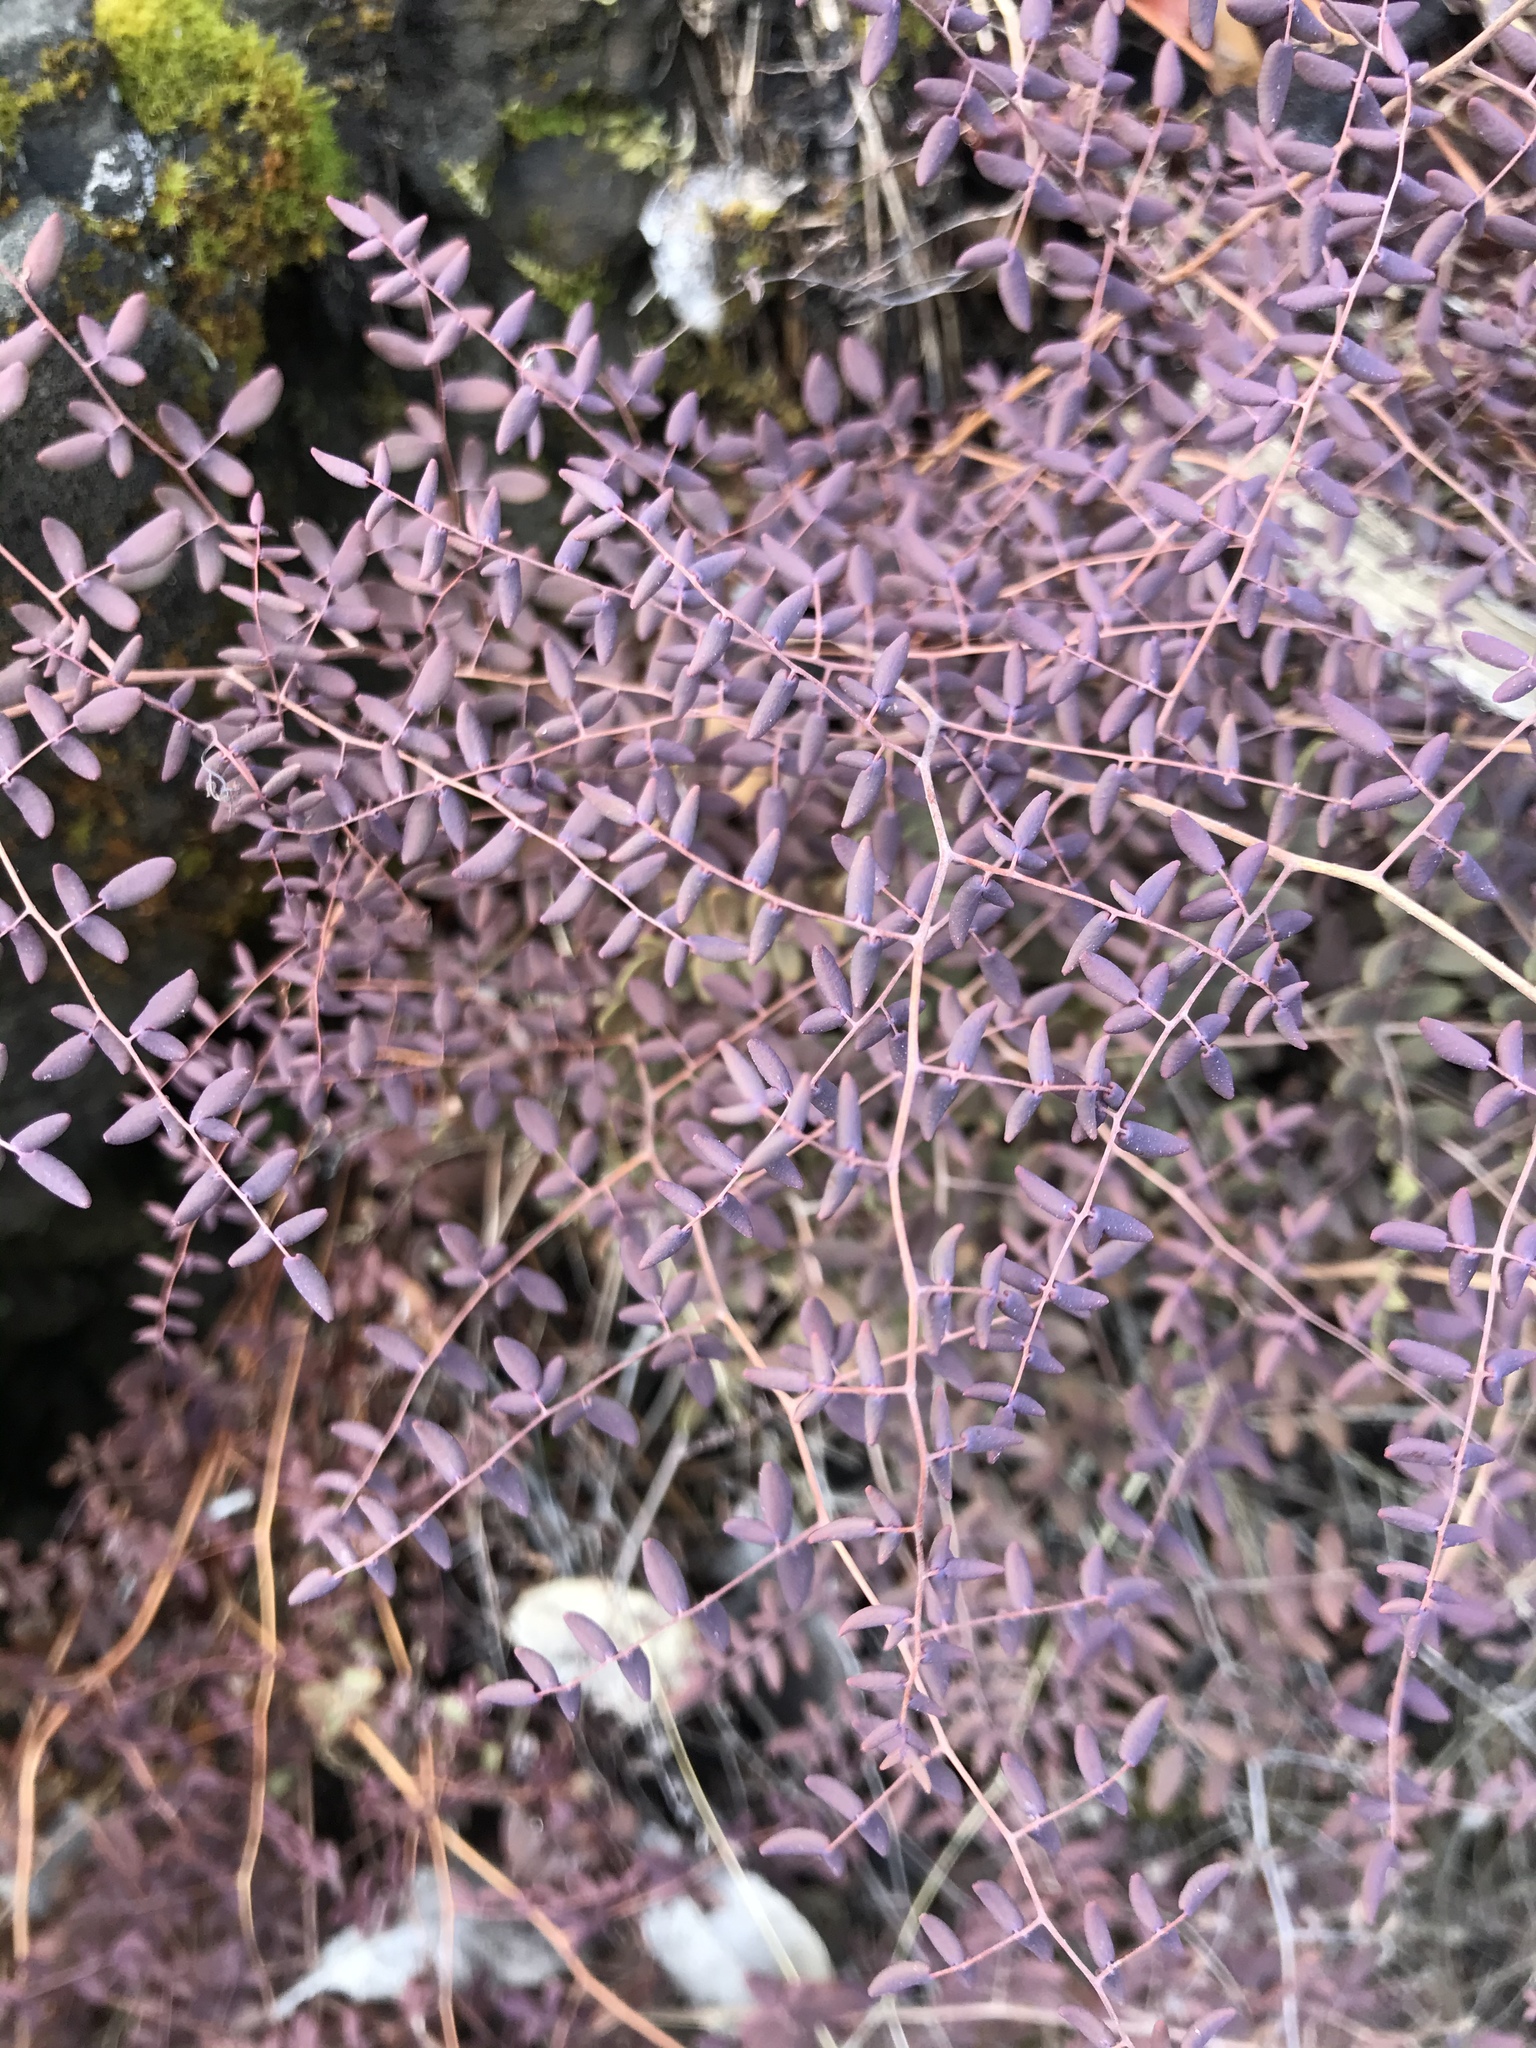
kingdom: Plantae
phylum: Tracheophyta
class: Polypodiopsida
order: Polypodiales
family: Pteridaceae
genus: Pellaea
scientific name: Pellaea andromedifolia
